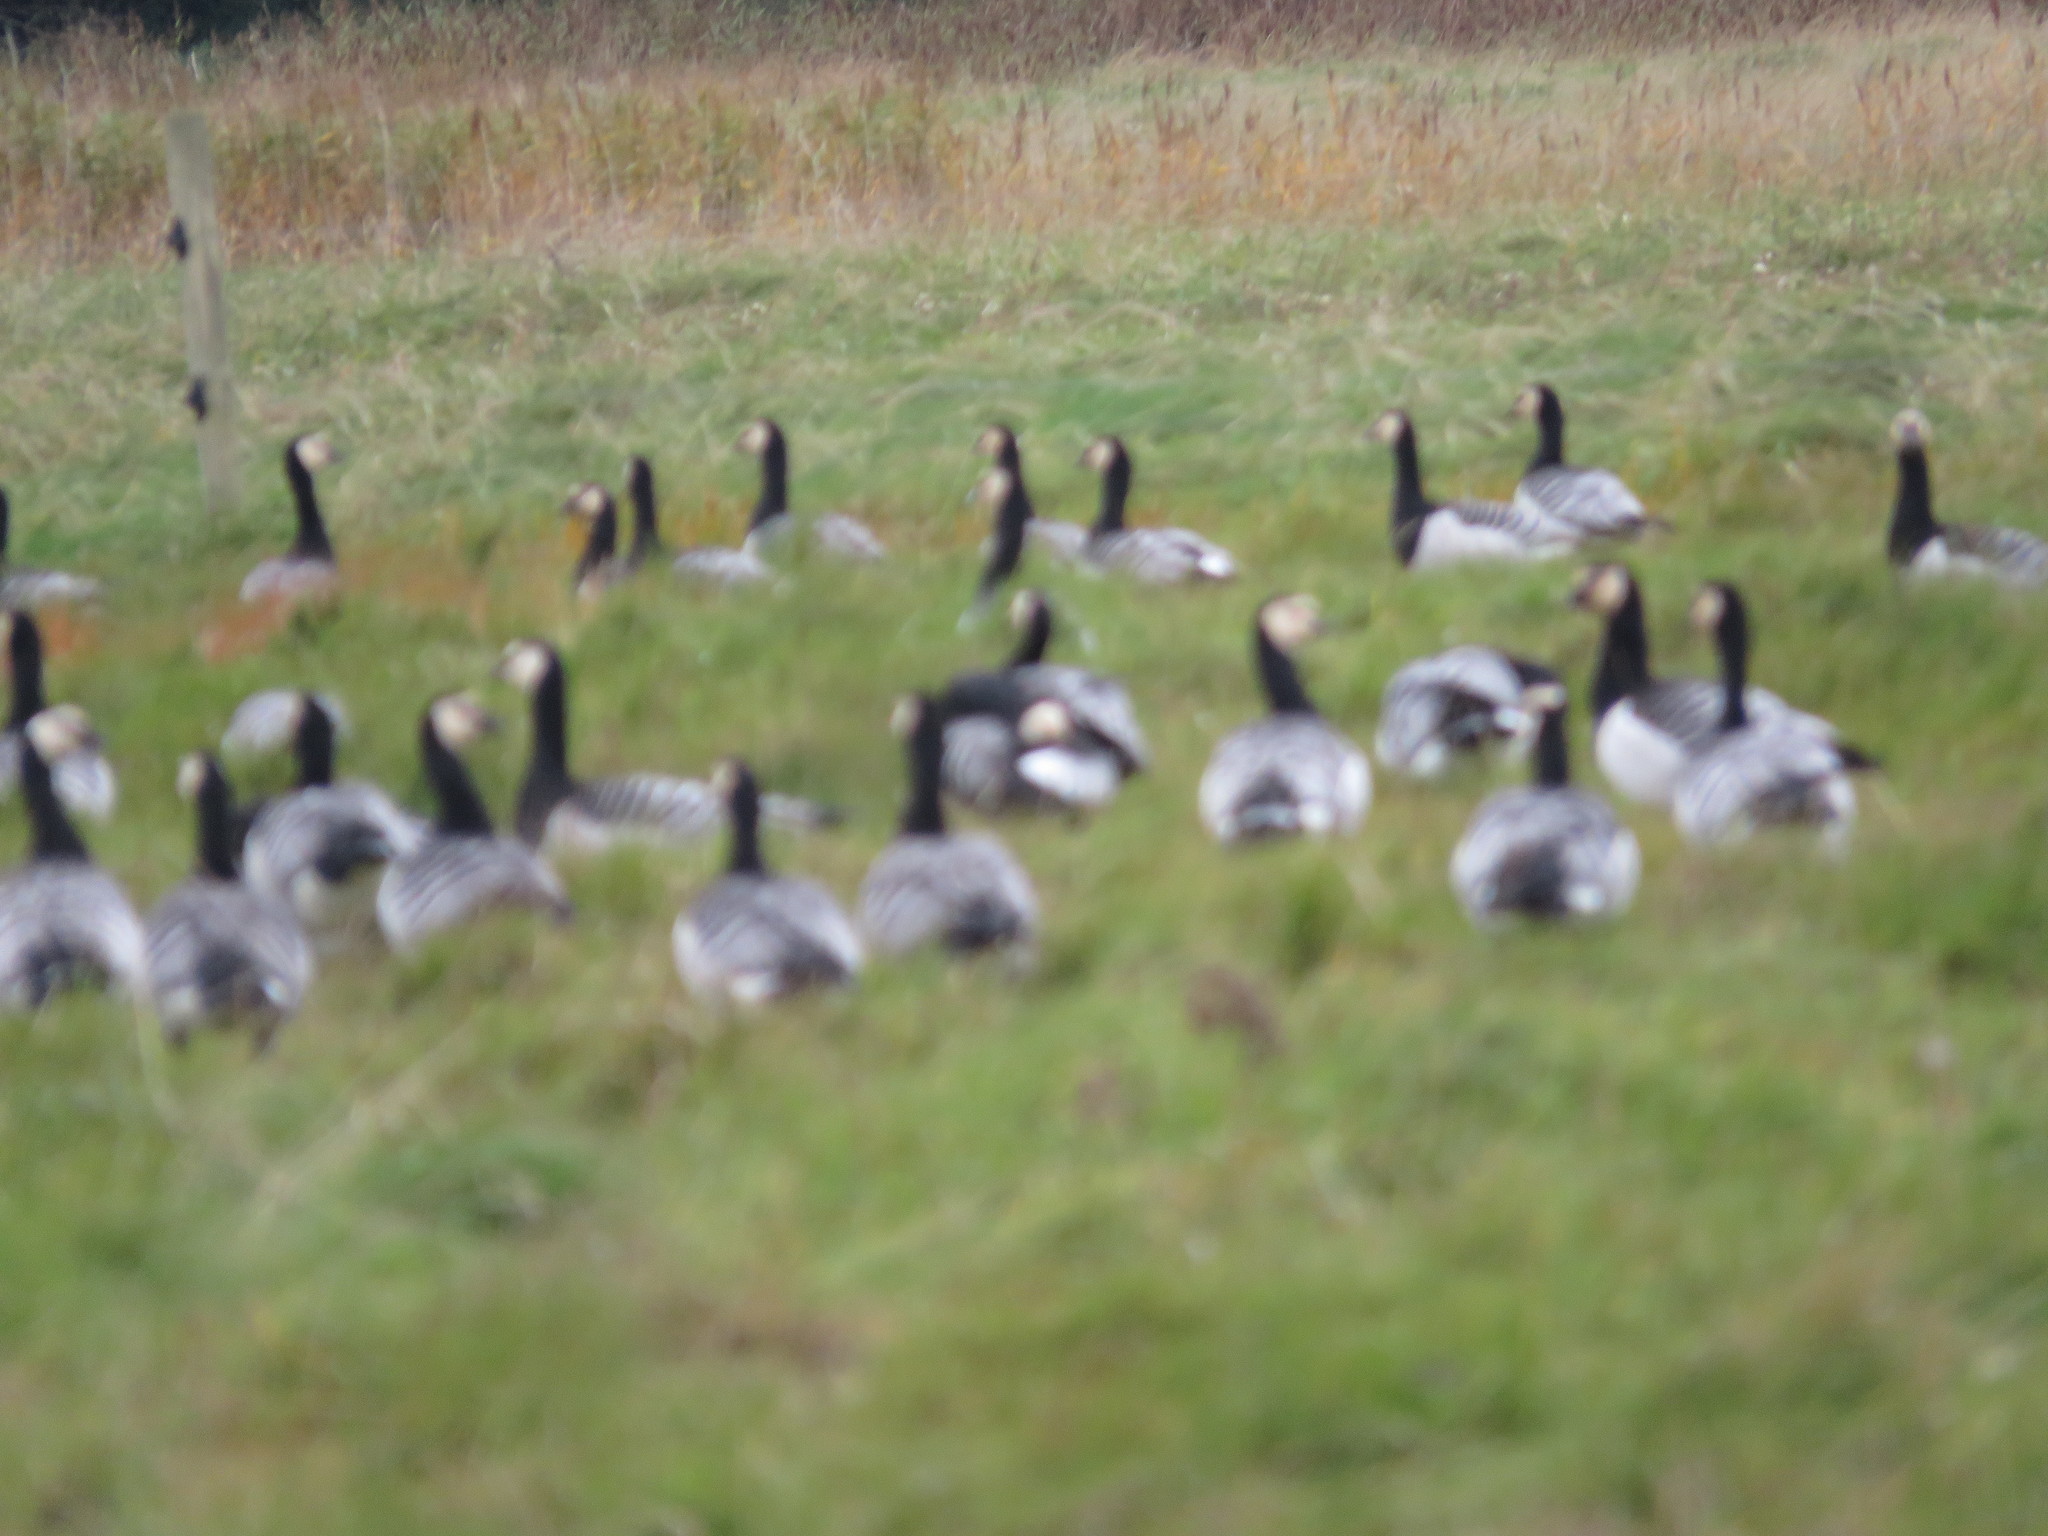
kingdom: Animalia
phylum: Chordata
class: Aves
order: Anseriformes
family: Anatidae
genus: Branta
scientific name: Branta leucopsis
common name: Barnacle goose
